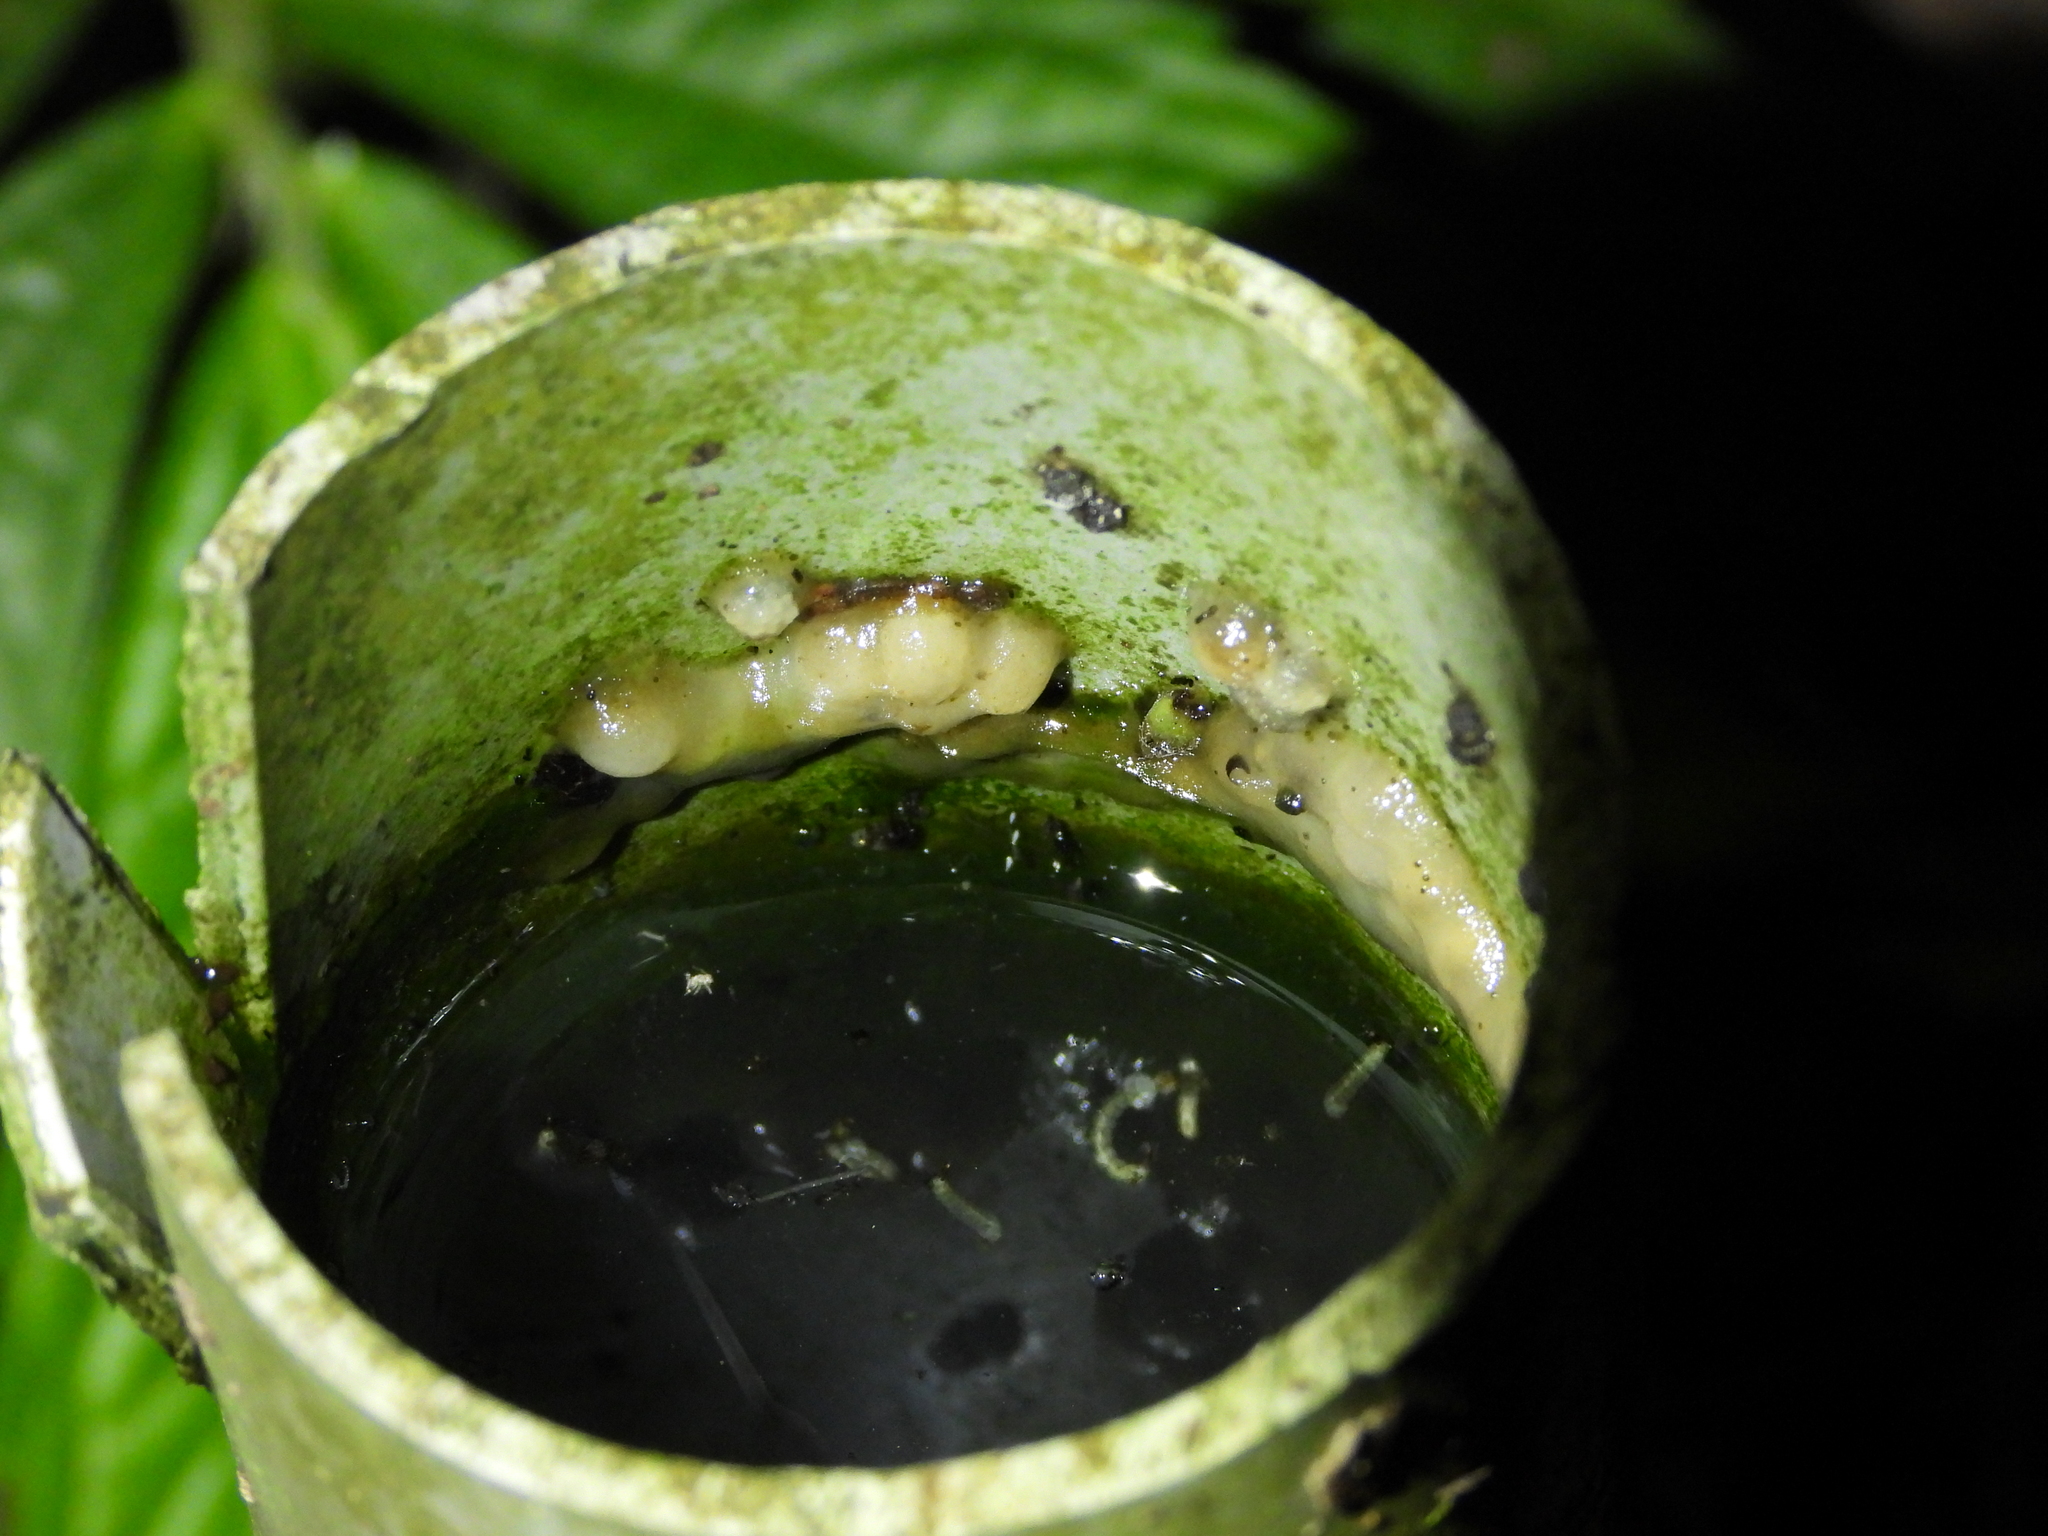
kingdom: Animalia
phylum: Chordata
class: Amphibia
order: Anura
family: Rhacophoridae
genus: Kurixalus
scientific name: Kurixalus eiffingeri
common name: Eiffinger’s treefrog
